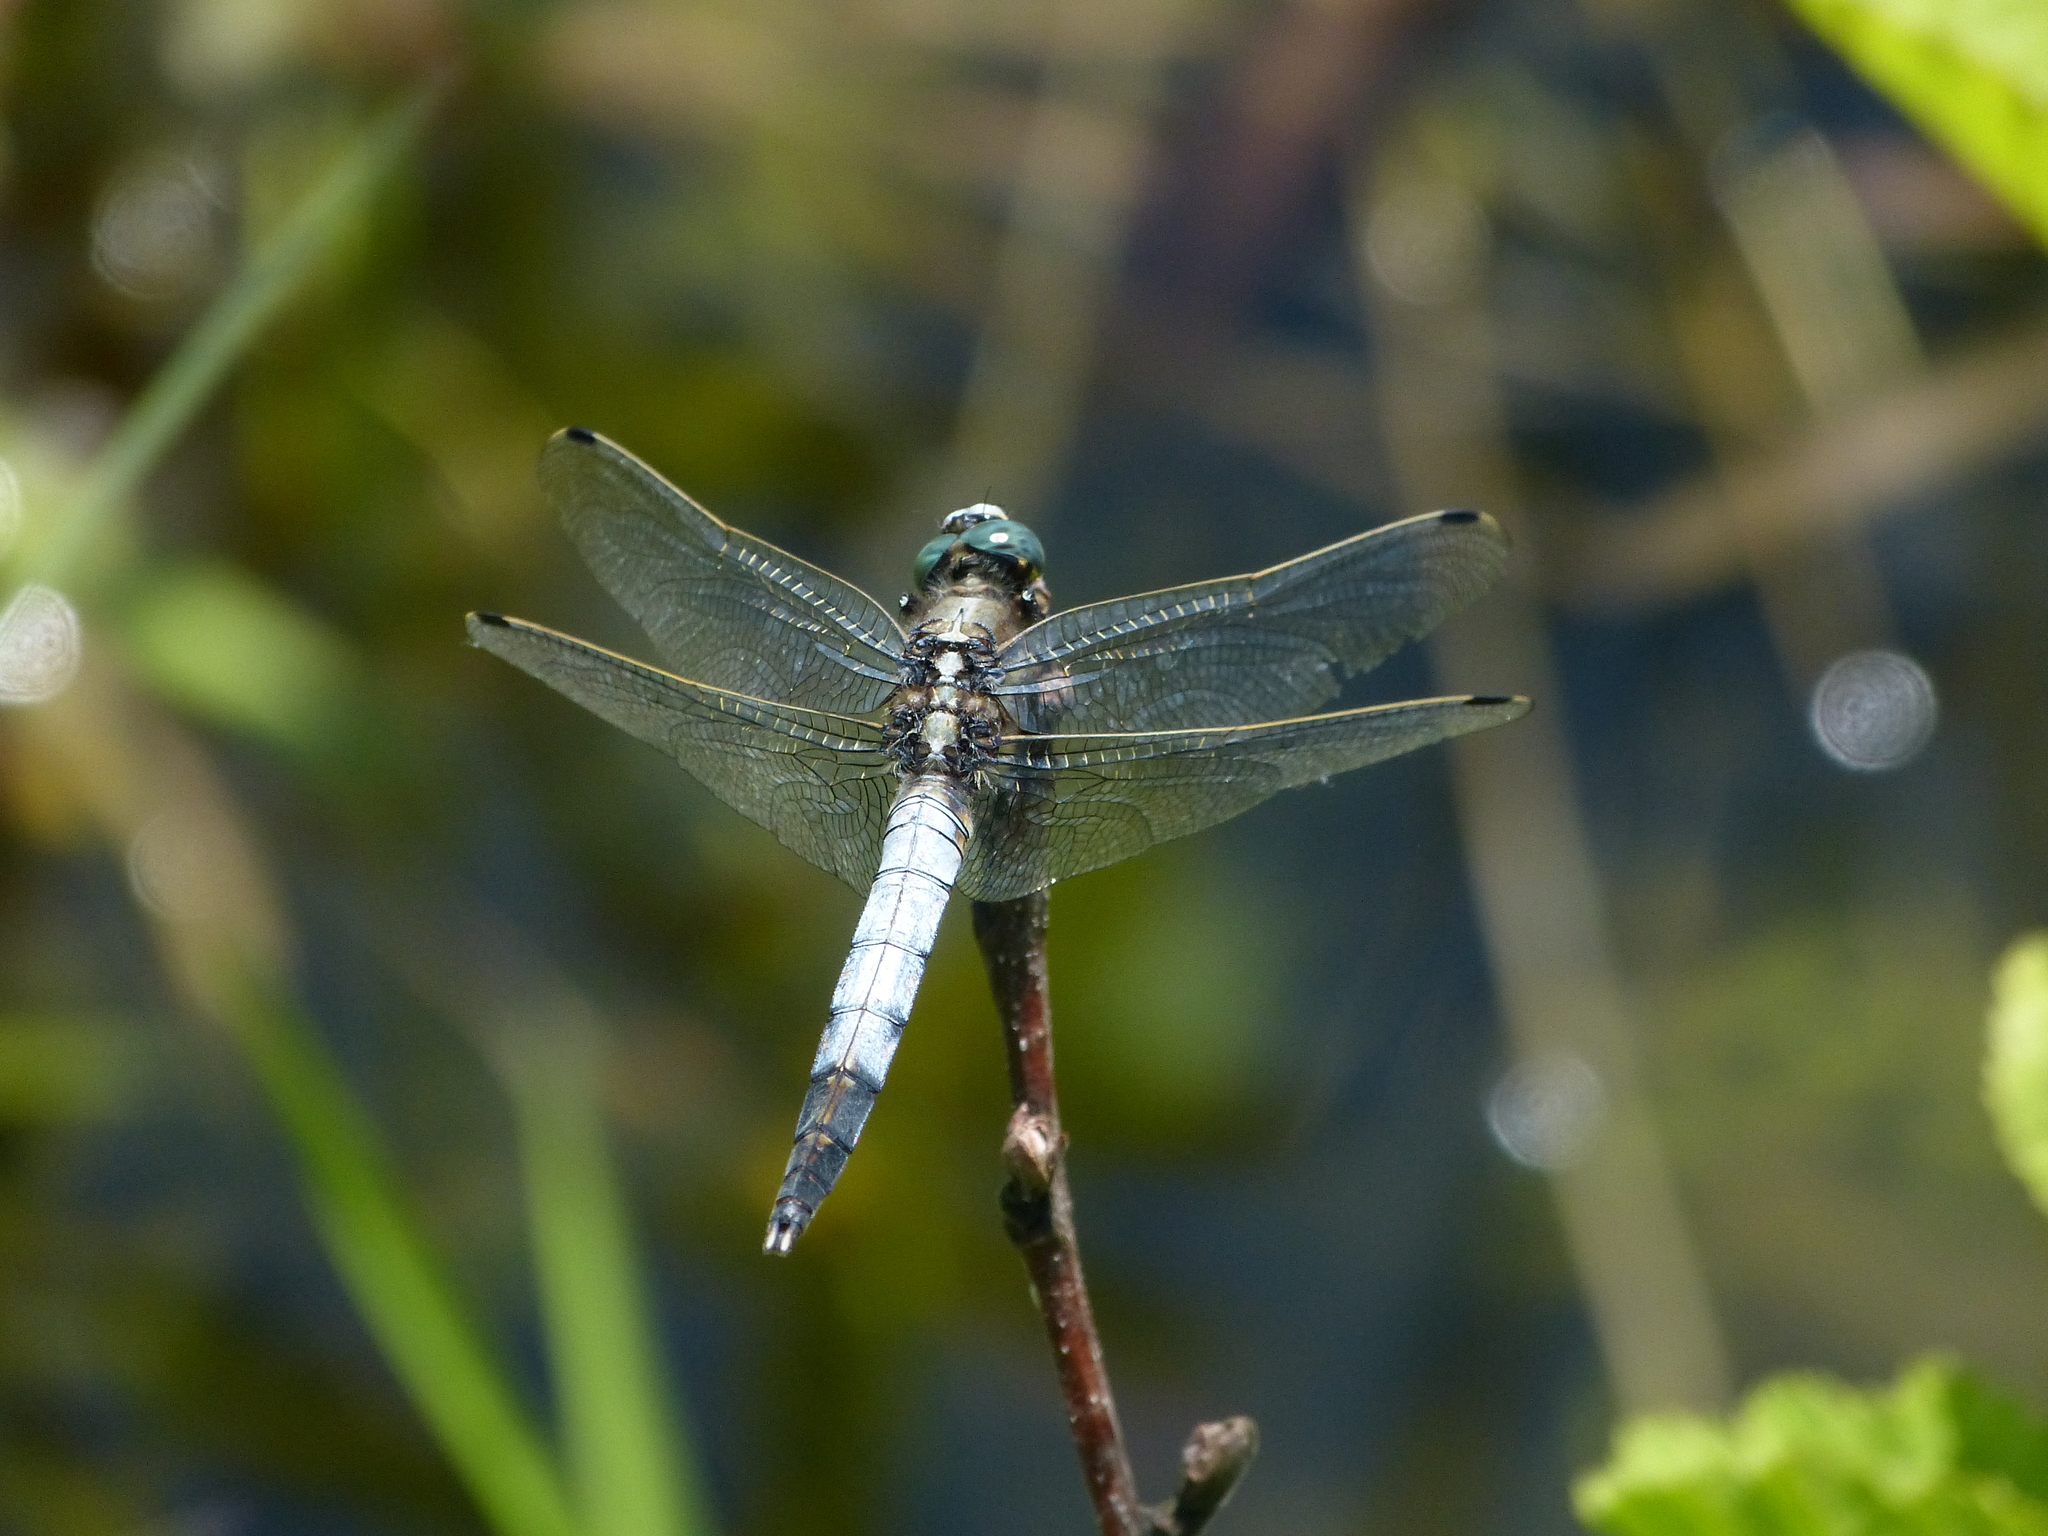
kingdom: Animalia
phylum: Arthropoda
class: Insecta
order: Odonata
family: Libellulidae
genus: Orthetrum
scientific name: Orthetrum albistylum
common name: White-tailed skimmer
